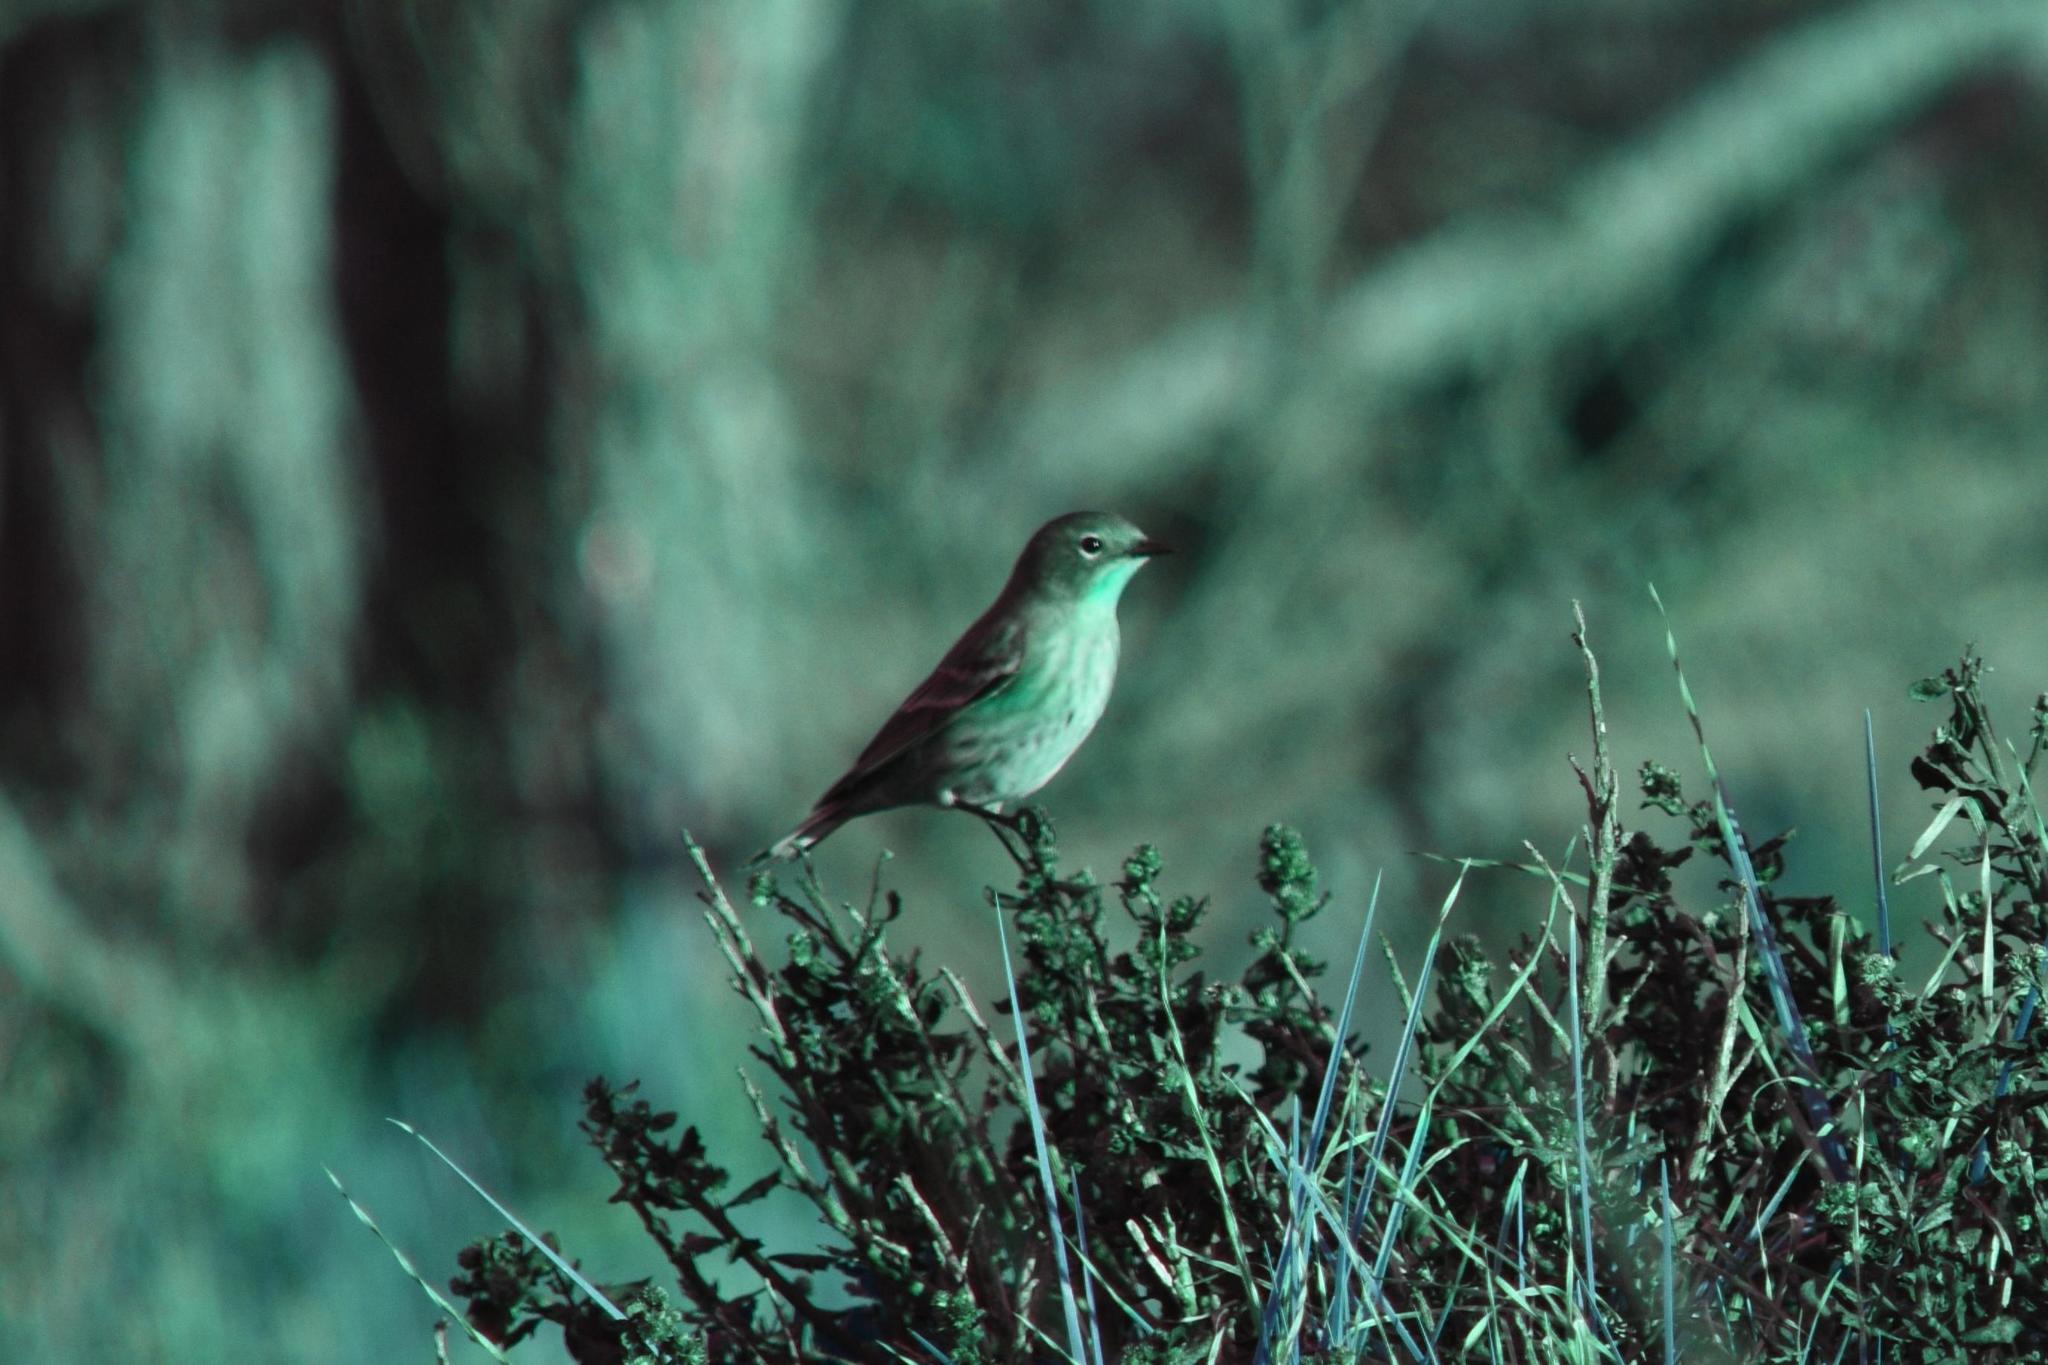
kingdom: Animalia
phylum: Chordata
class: Aves
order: Passeriformes
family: Parulidae
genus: Setophaga
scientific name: Setophaga coronata
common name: Myrtle warbler
